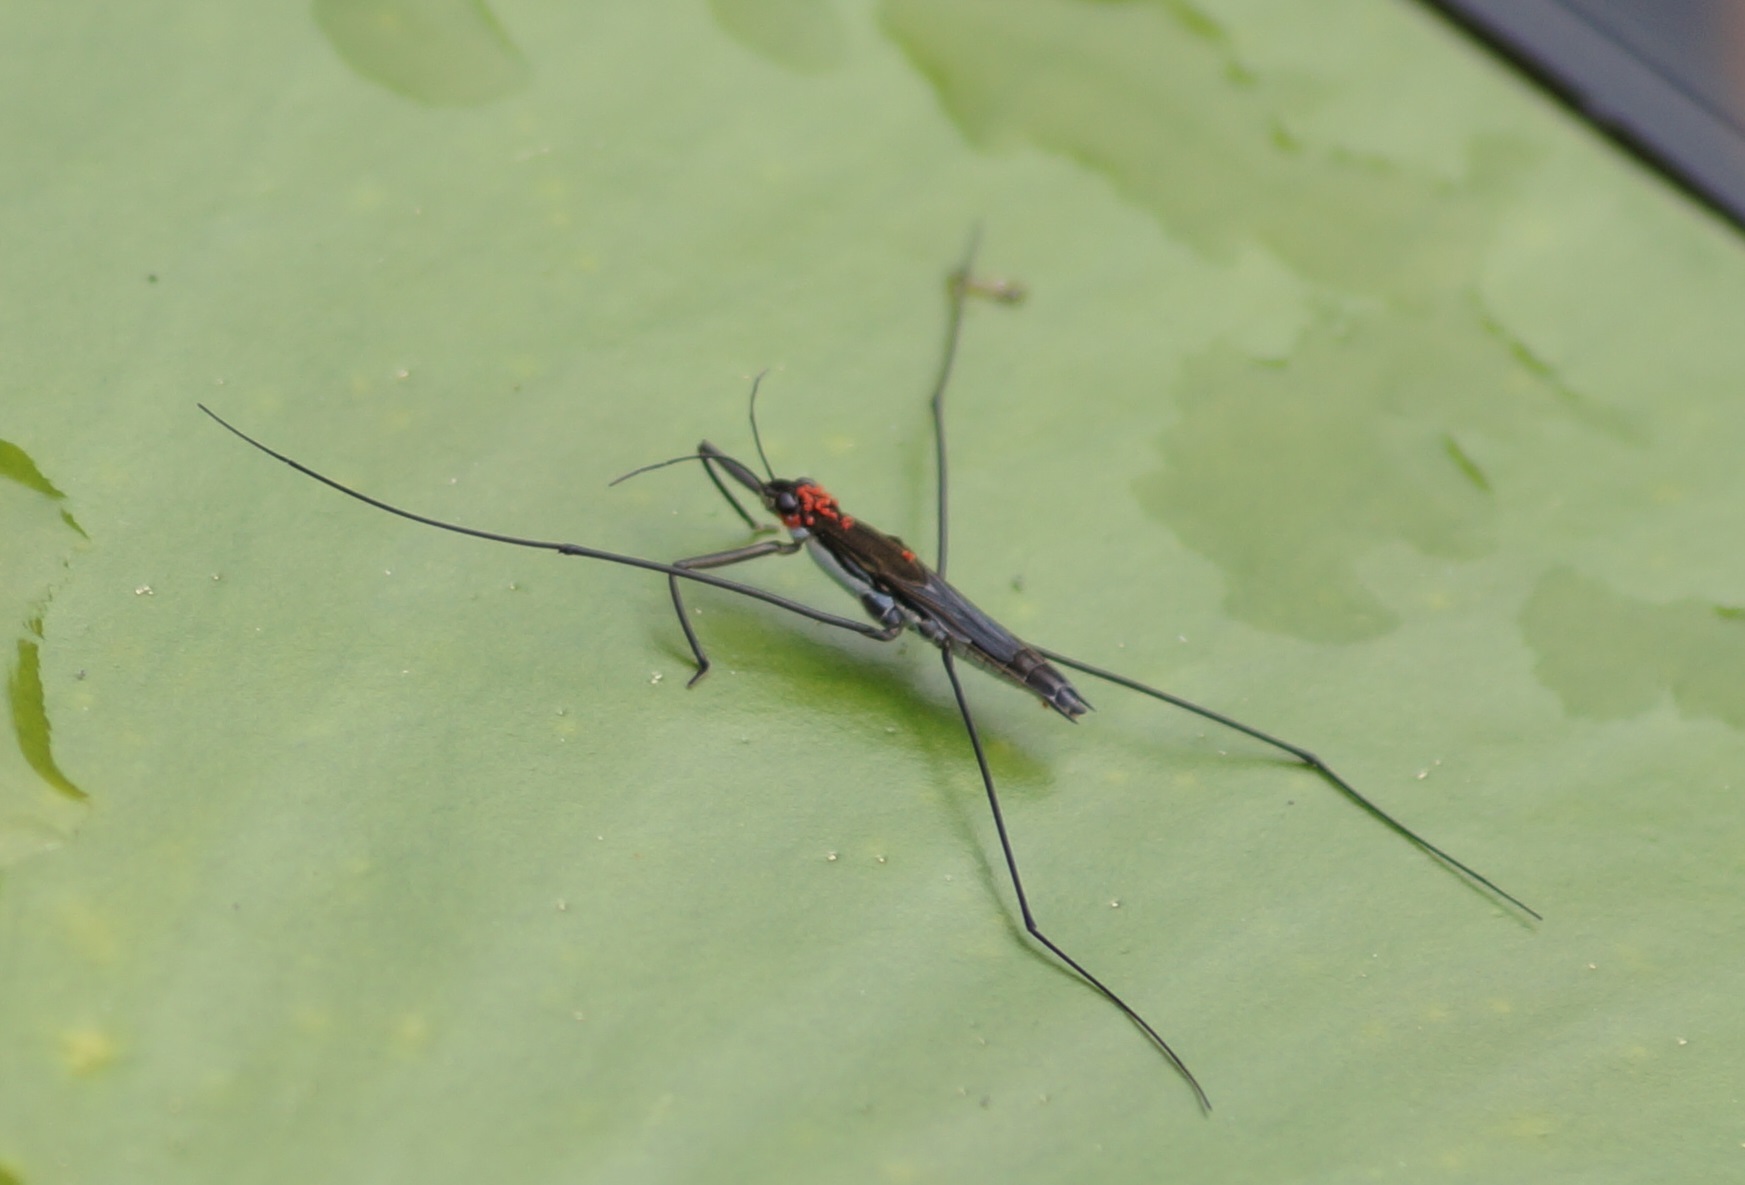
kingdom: Animalia
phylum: Arthropoda
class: Insecta
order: Hemiptera
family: Gerridae
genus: Aquarius
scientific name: Aquarius paludum
